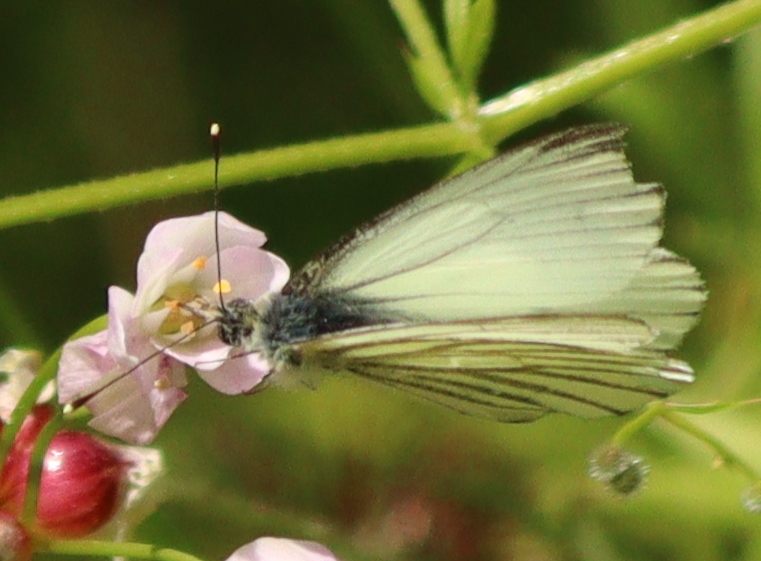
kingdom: Animalia
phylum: Arthropoda
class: Insecta
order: Lepidoptera
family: Pieridae
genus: Pieris
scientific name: Pieris napi
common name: Green-veined white
